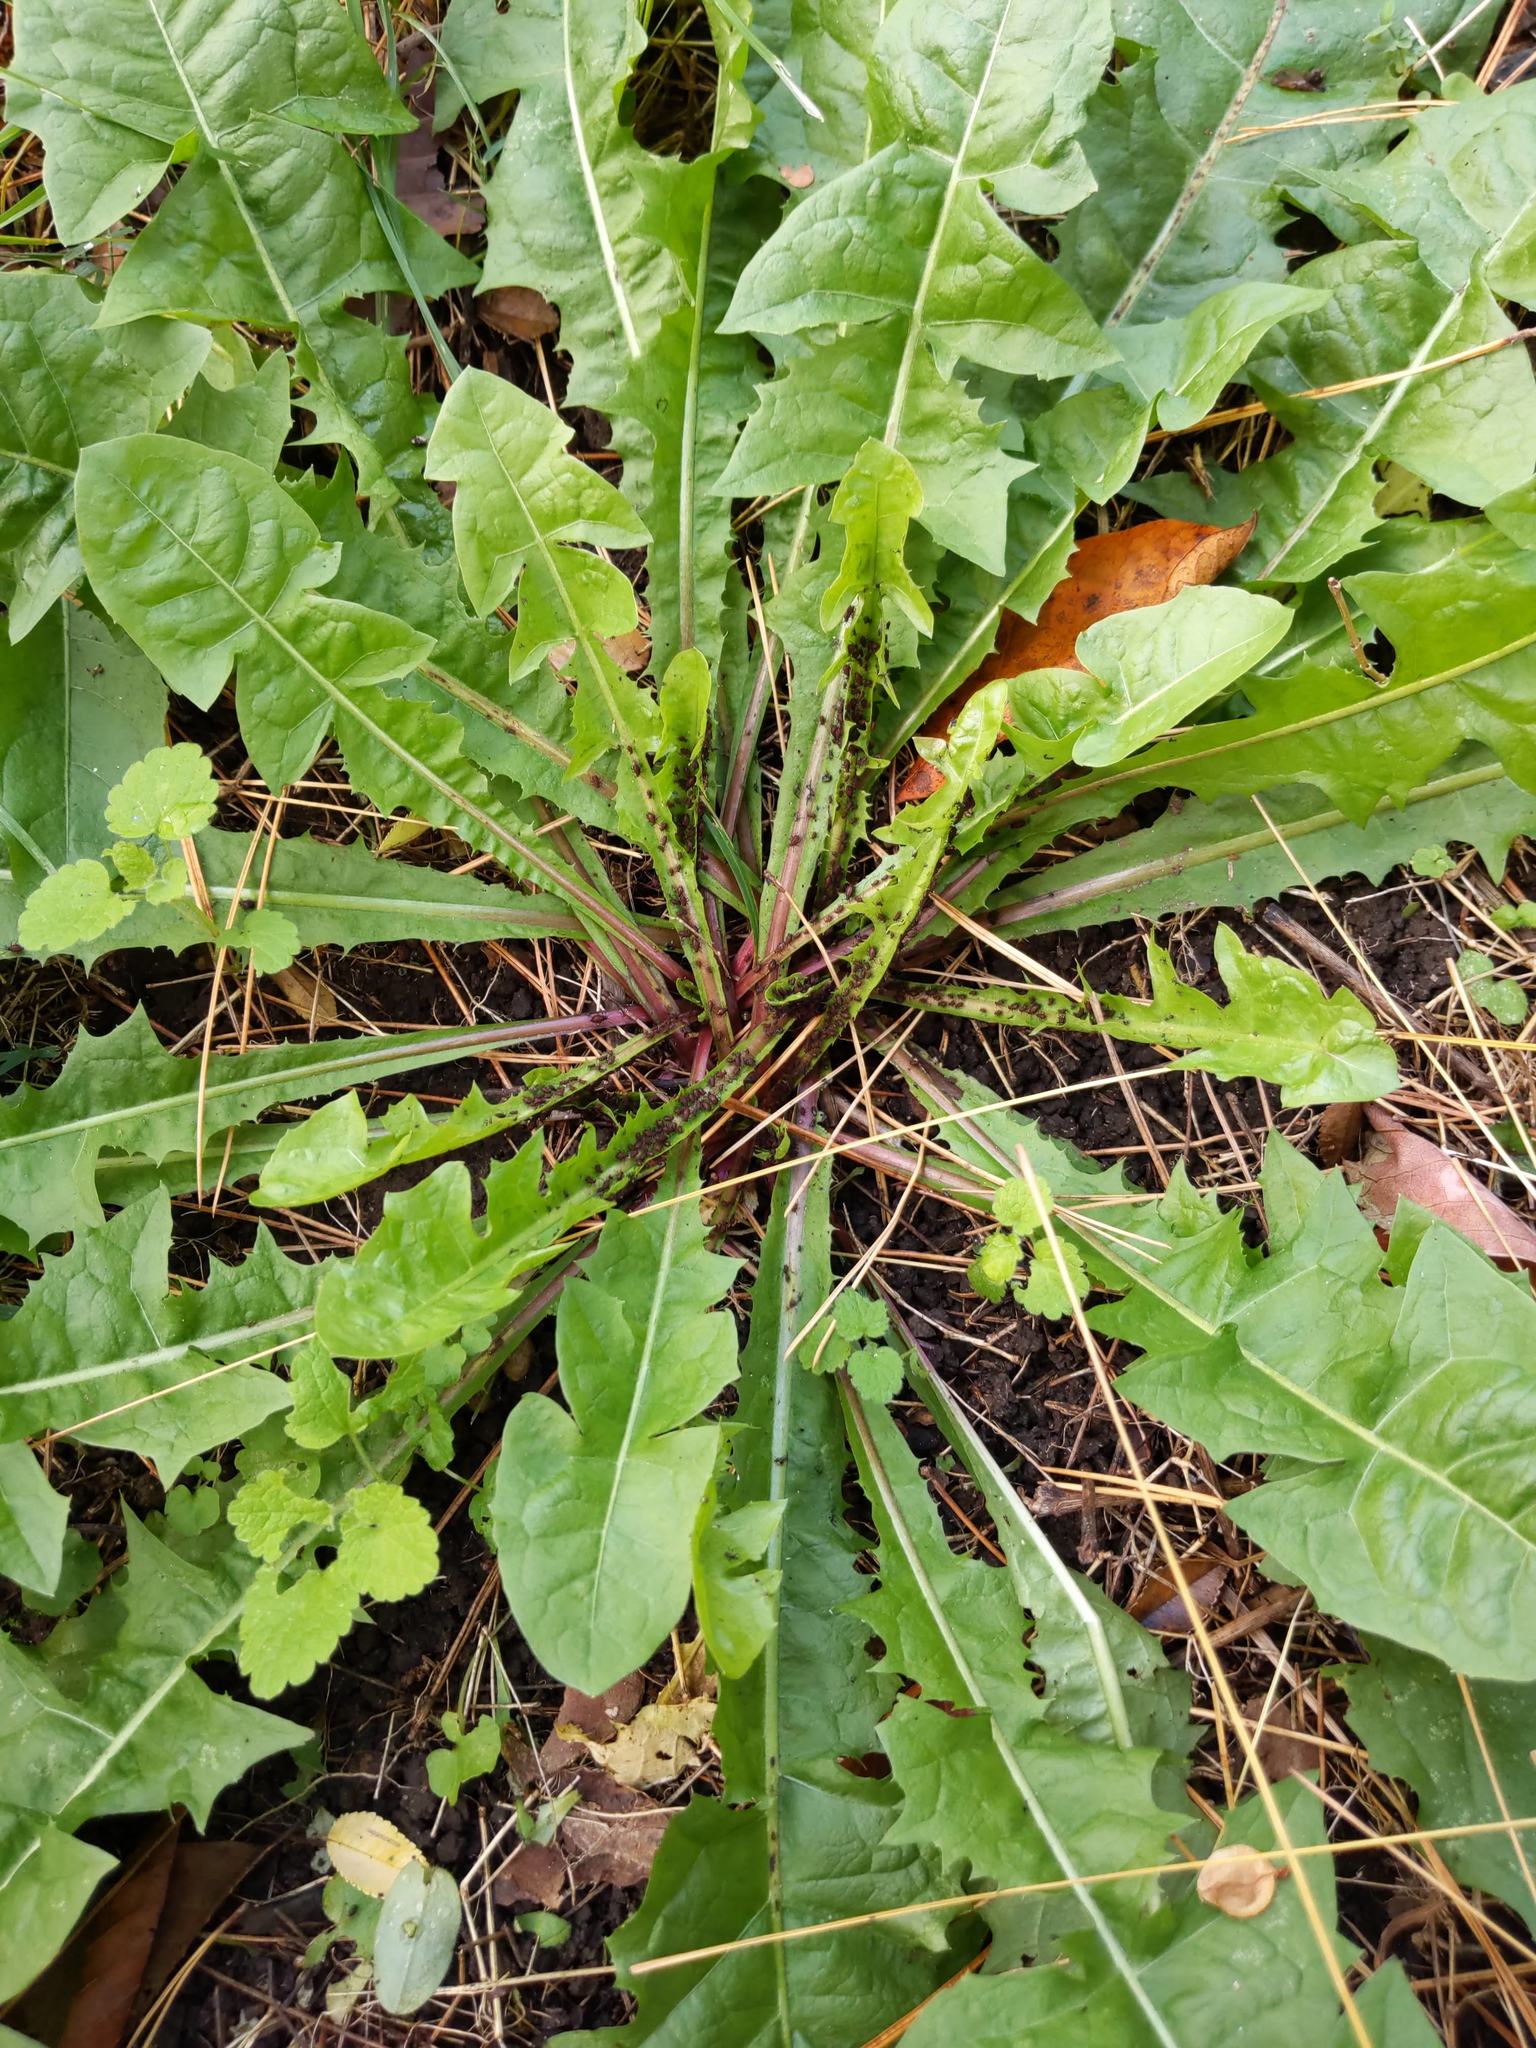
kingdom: Plantae
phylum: Tracheophyta
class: Magnoliopsida
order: Asterales
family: Asteraceae
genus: Taraxacum
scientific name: Taraxacum officinale
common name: Common dandelion
